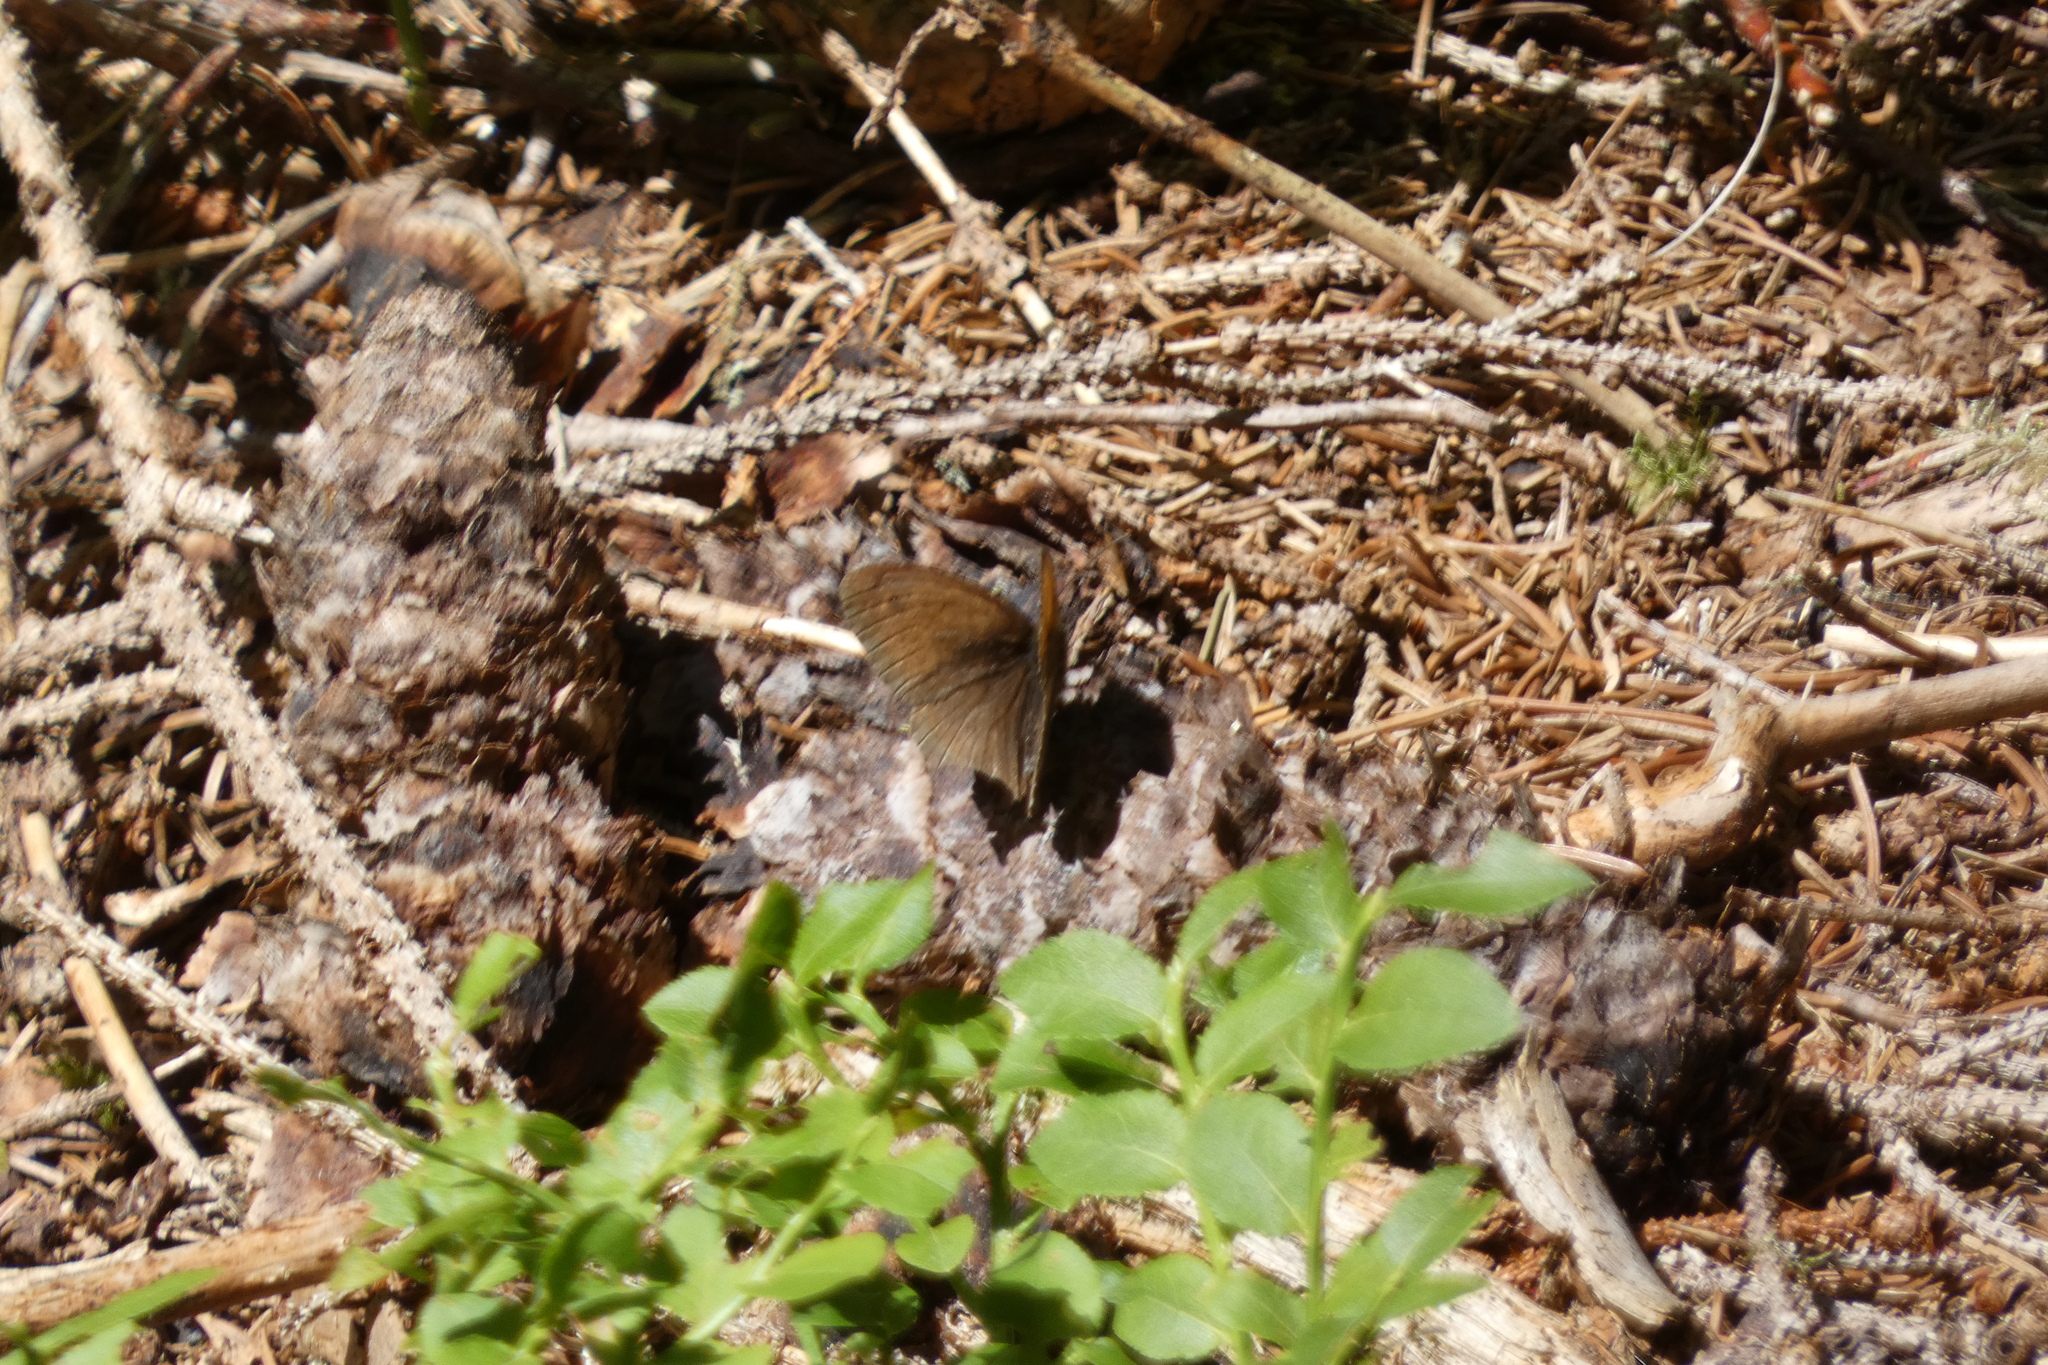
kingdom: Animalia
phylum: Arthropoda
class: Insecta
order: Lepidoptera
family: Nymphalidae
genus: Maniola
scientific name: Maniola jurtina
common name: Meadow brown
